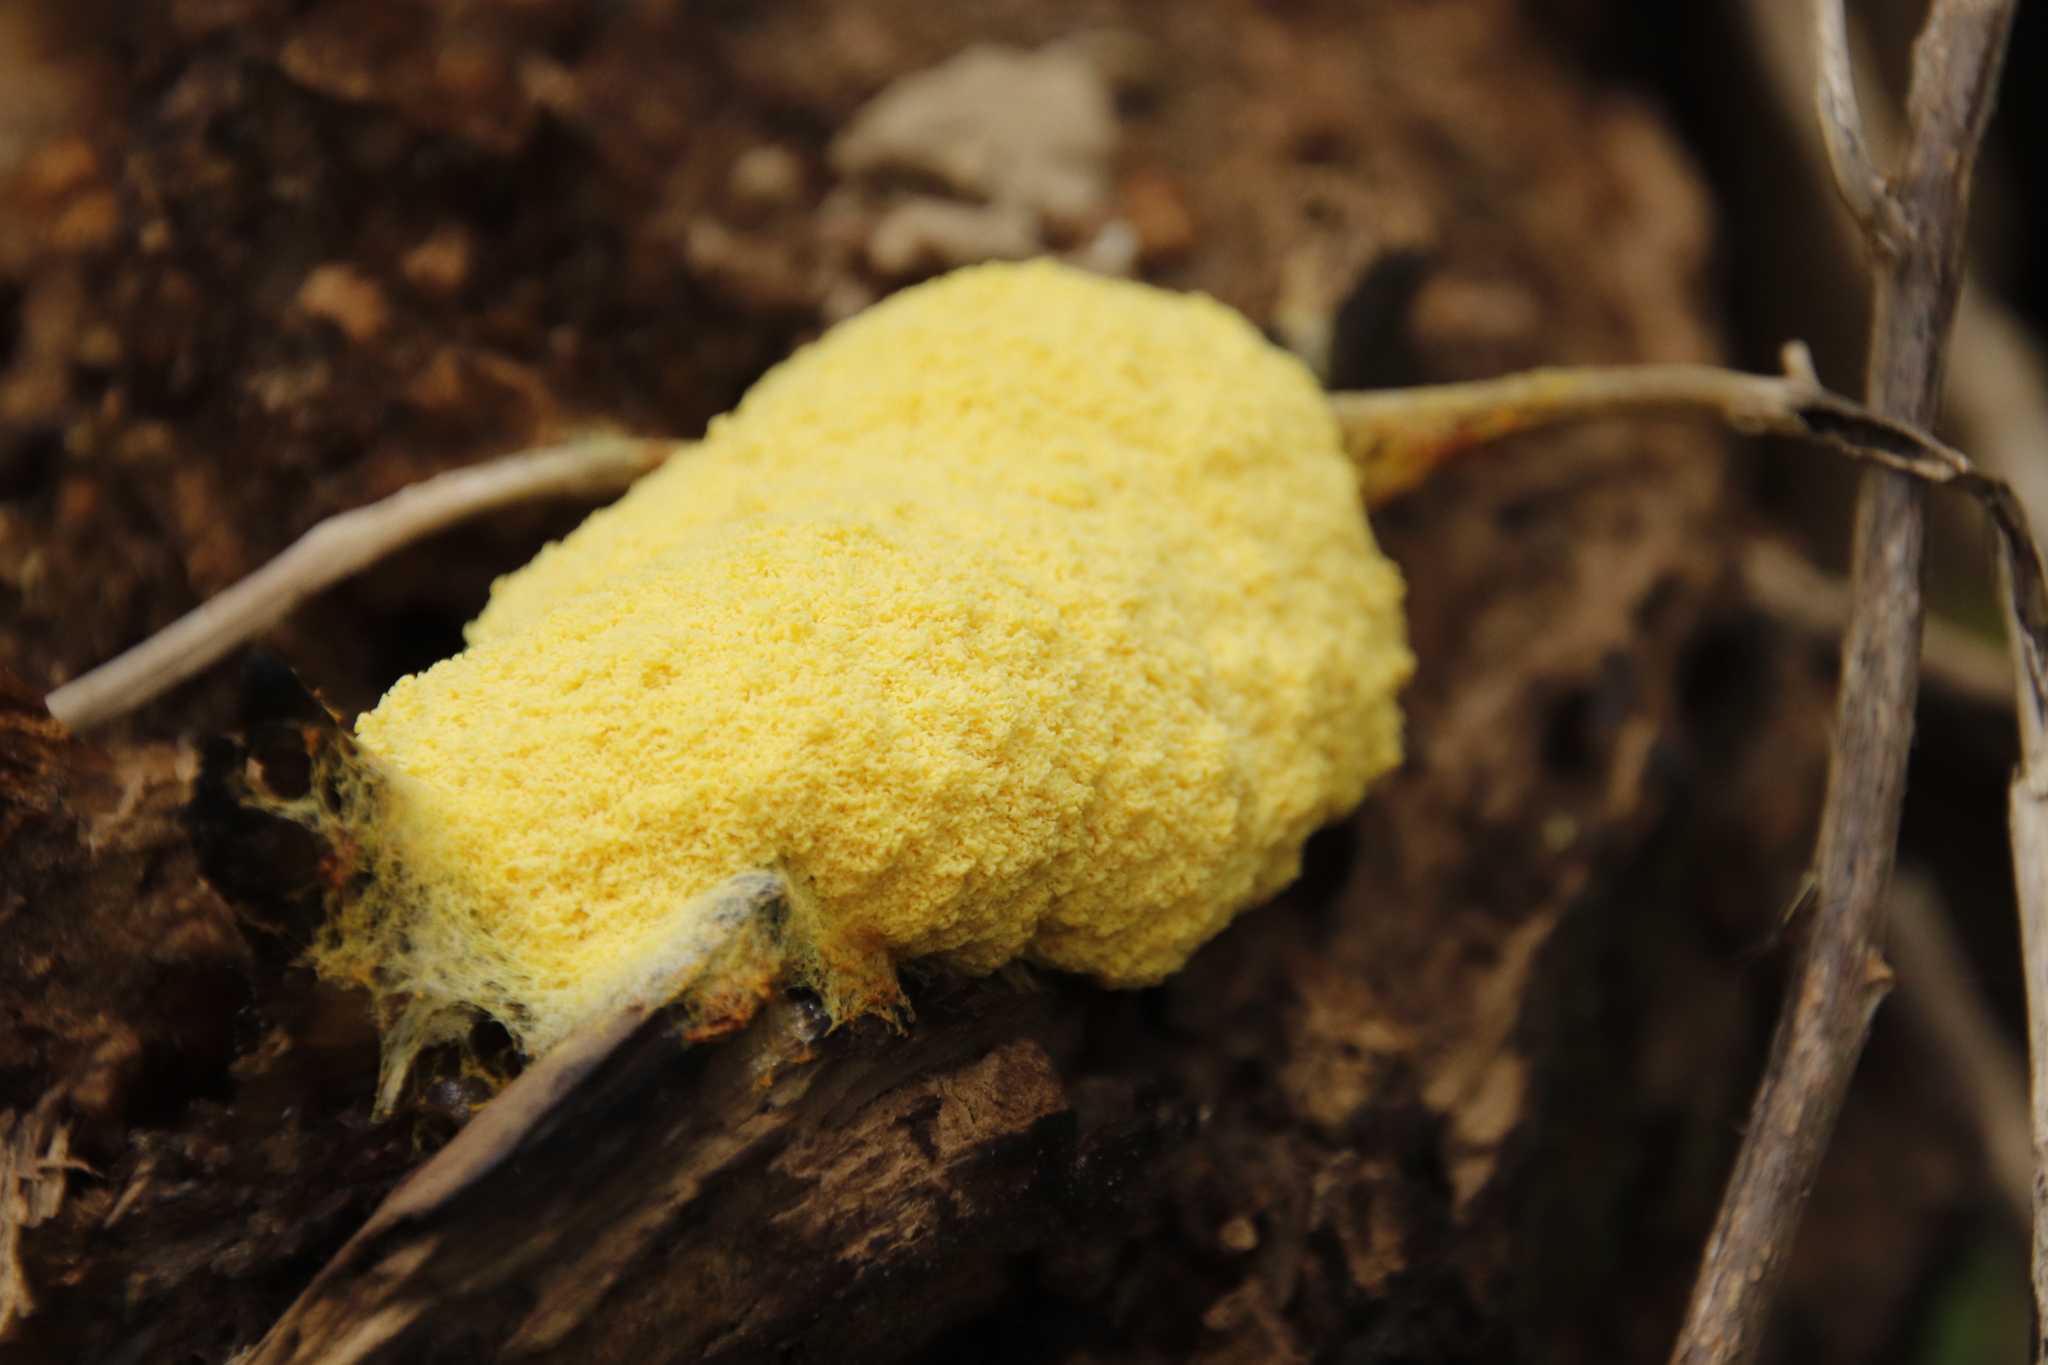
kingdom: Protozoa
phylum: Mycetozoa
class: Myxomycetes
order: Physarales
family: Physaraceae
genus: Fuligo
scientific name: Fuligo septica
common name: Dog vomit slime mold
